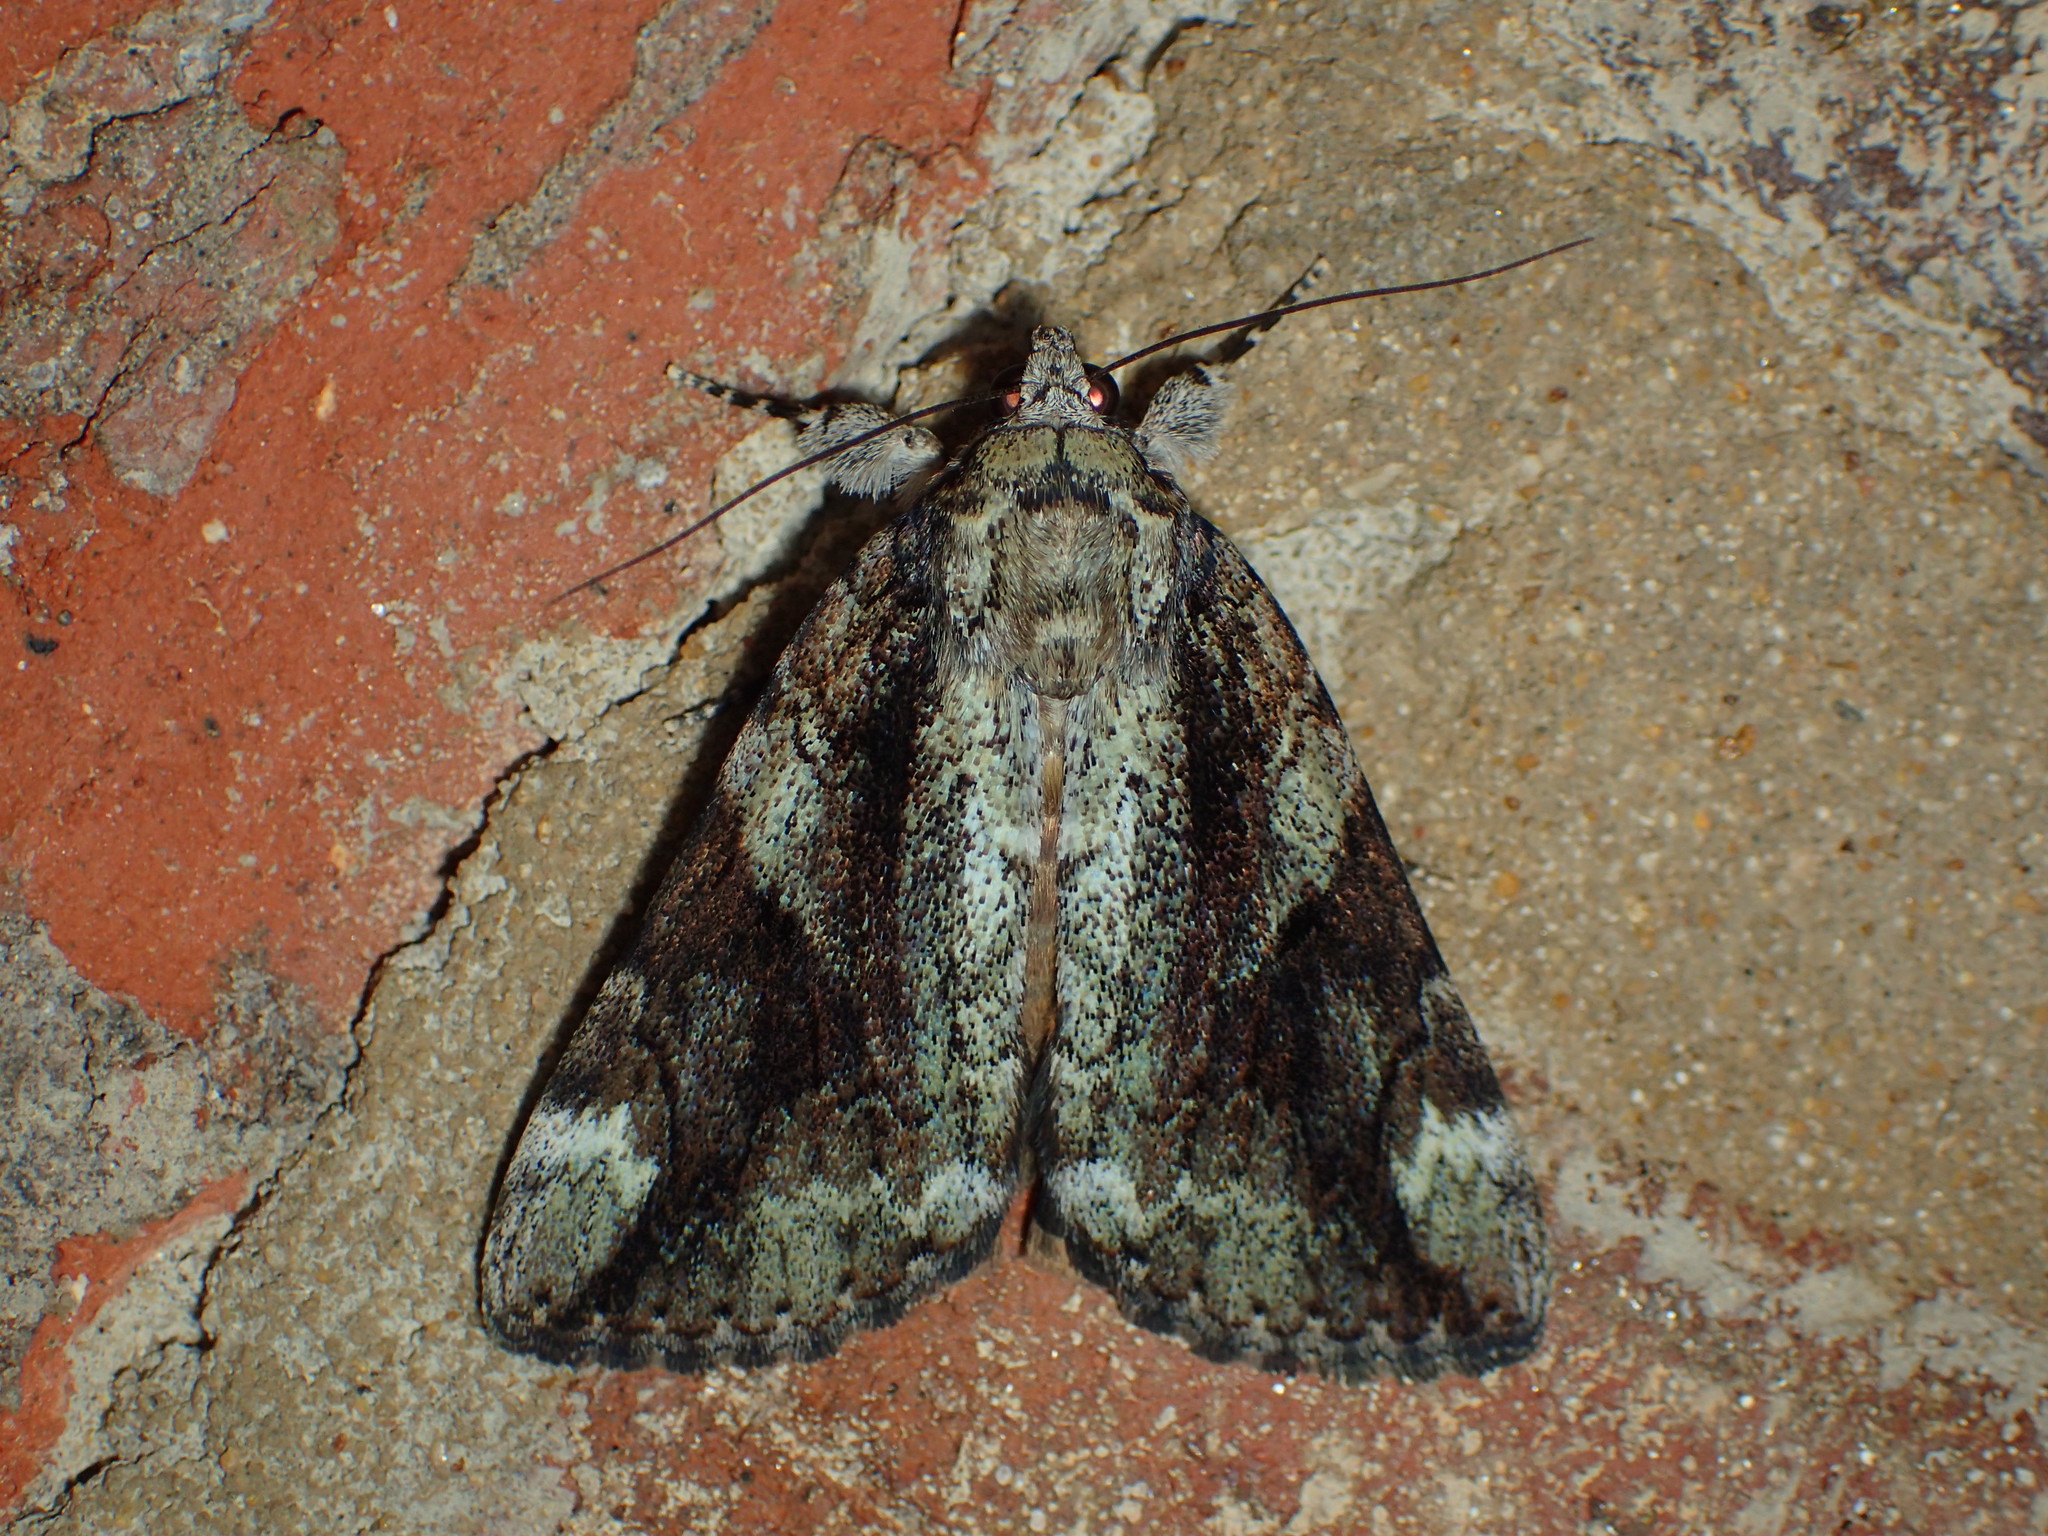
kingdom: Animalia
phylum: Arthropoda
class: Insecta
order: Lepidoptera
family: Erebidae
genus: Catocala
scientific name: Catocala micronympha
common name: Little nymph underwing
